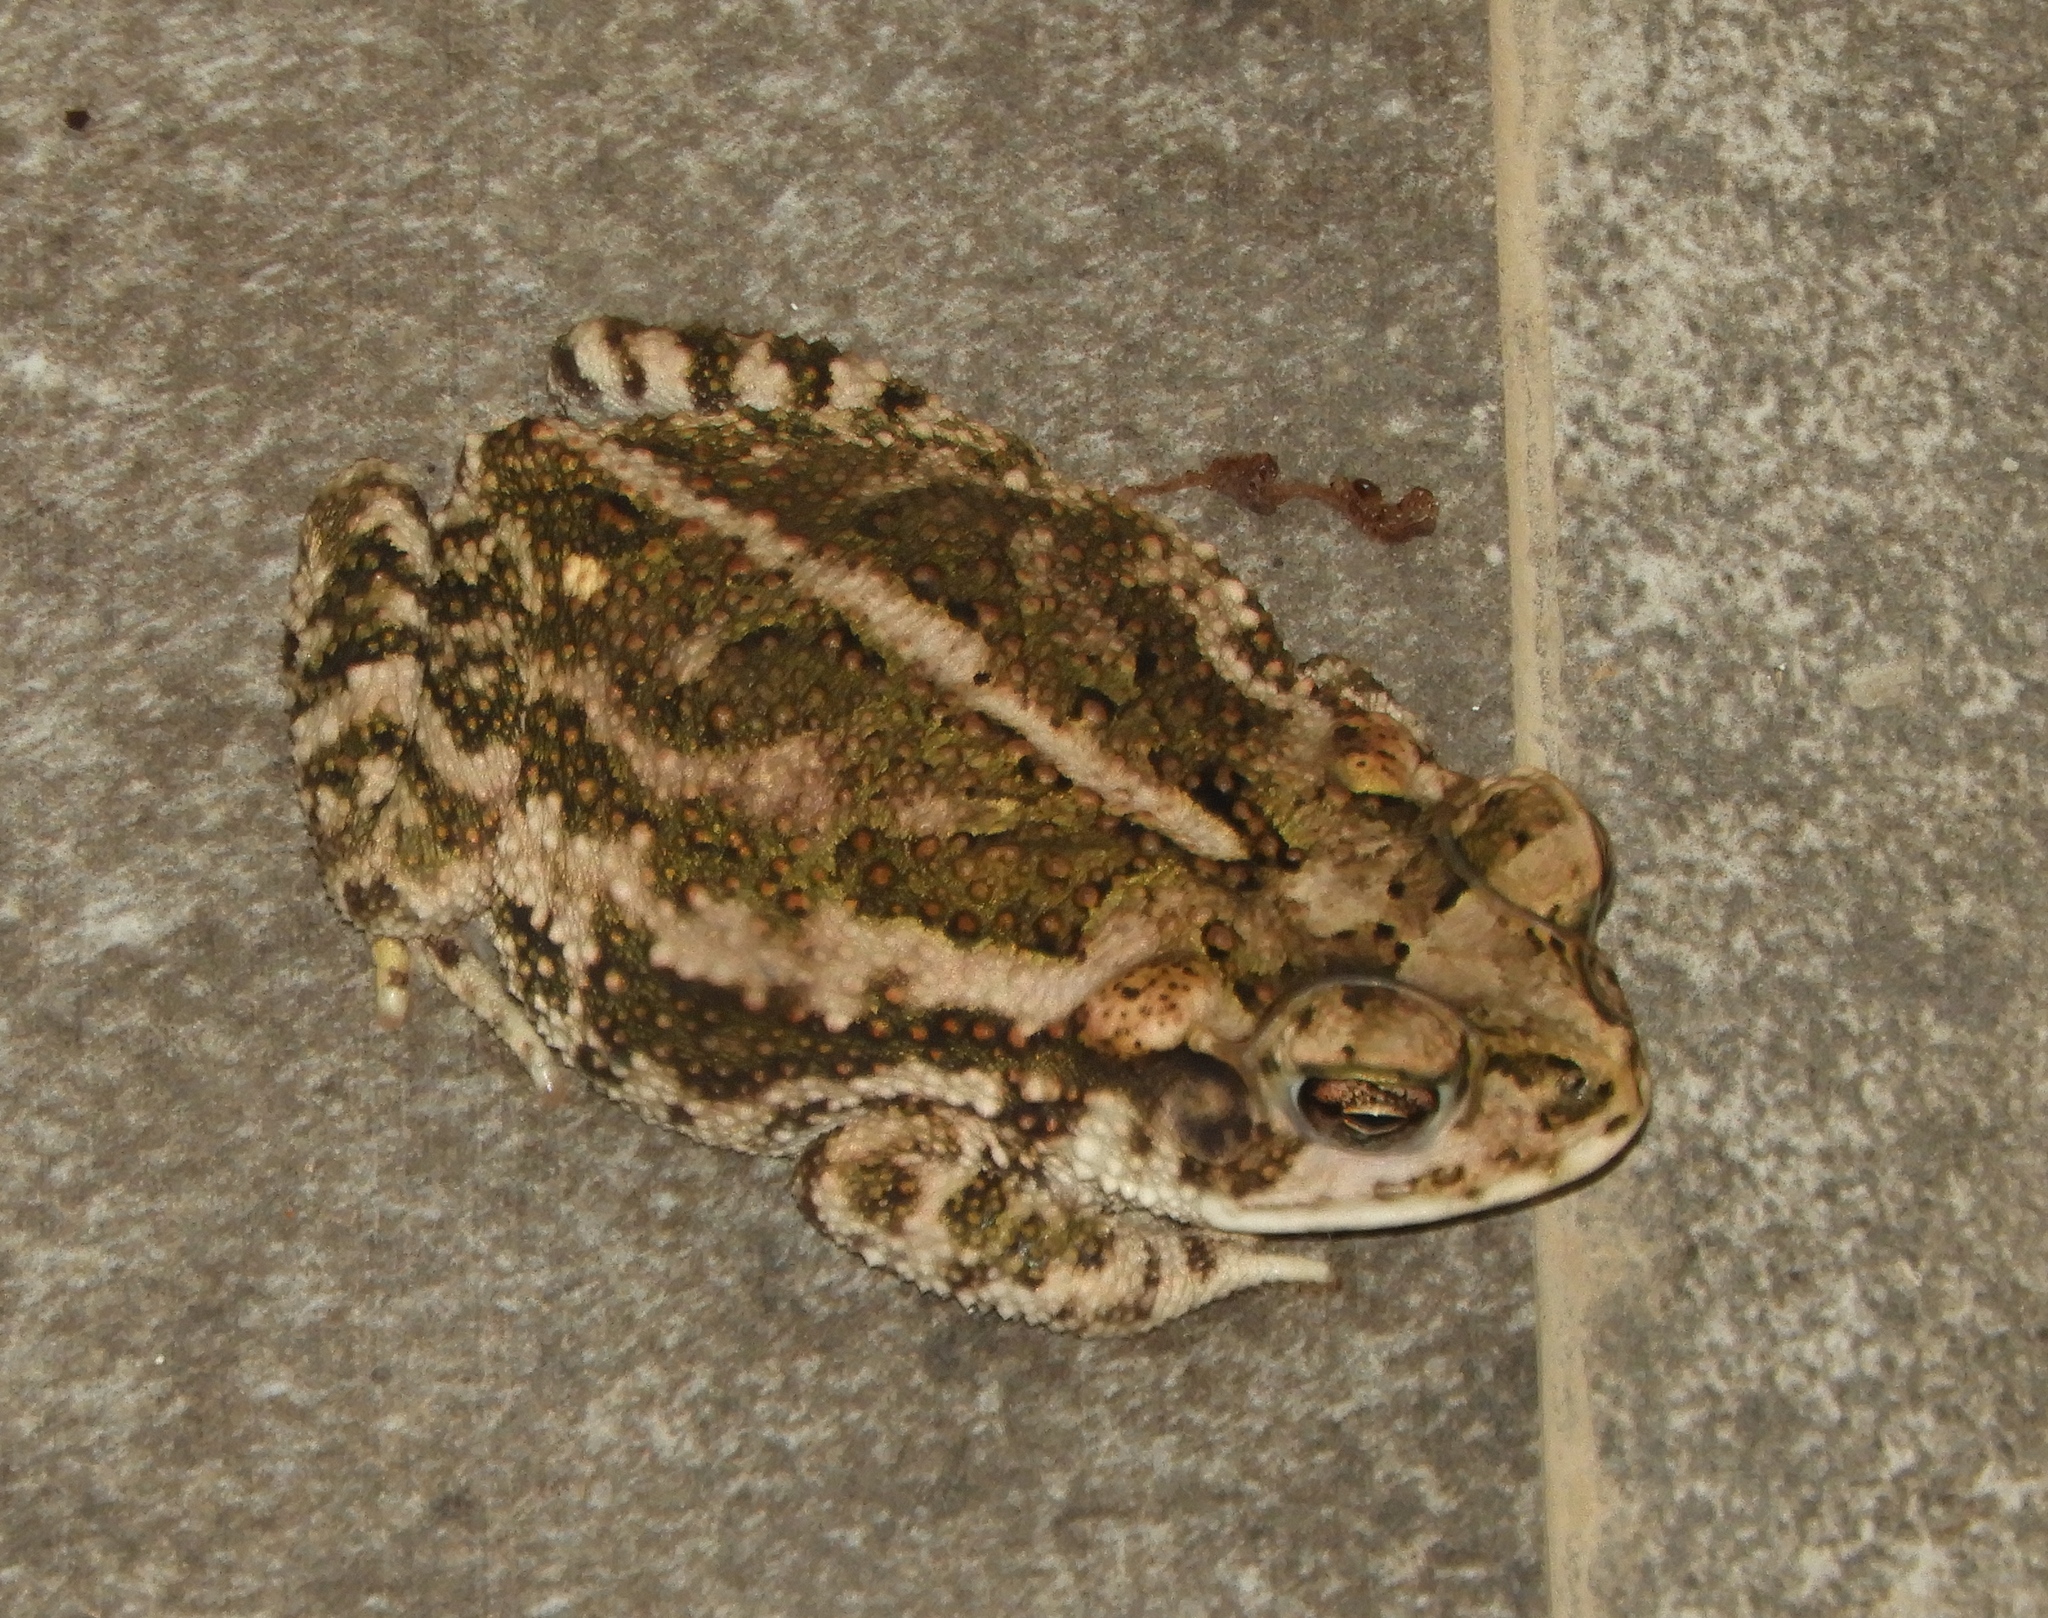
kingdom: Animalia
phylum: Chordata
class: Amphibia
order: Anura
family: Bufonidae
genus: Incilius
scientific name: Incilius mazatlanensis
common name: Sinaloa toad
